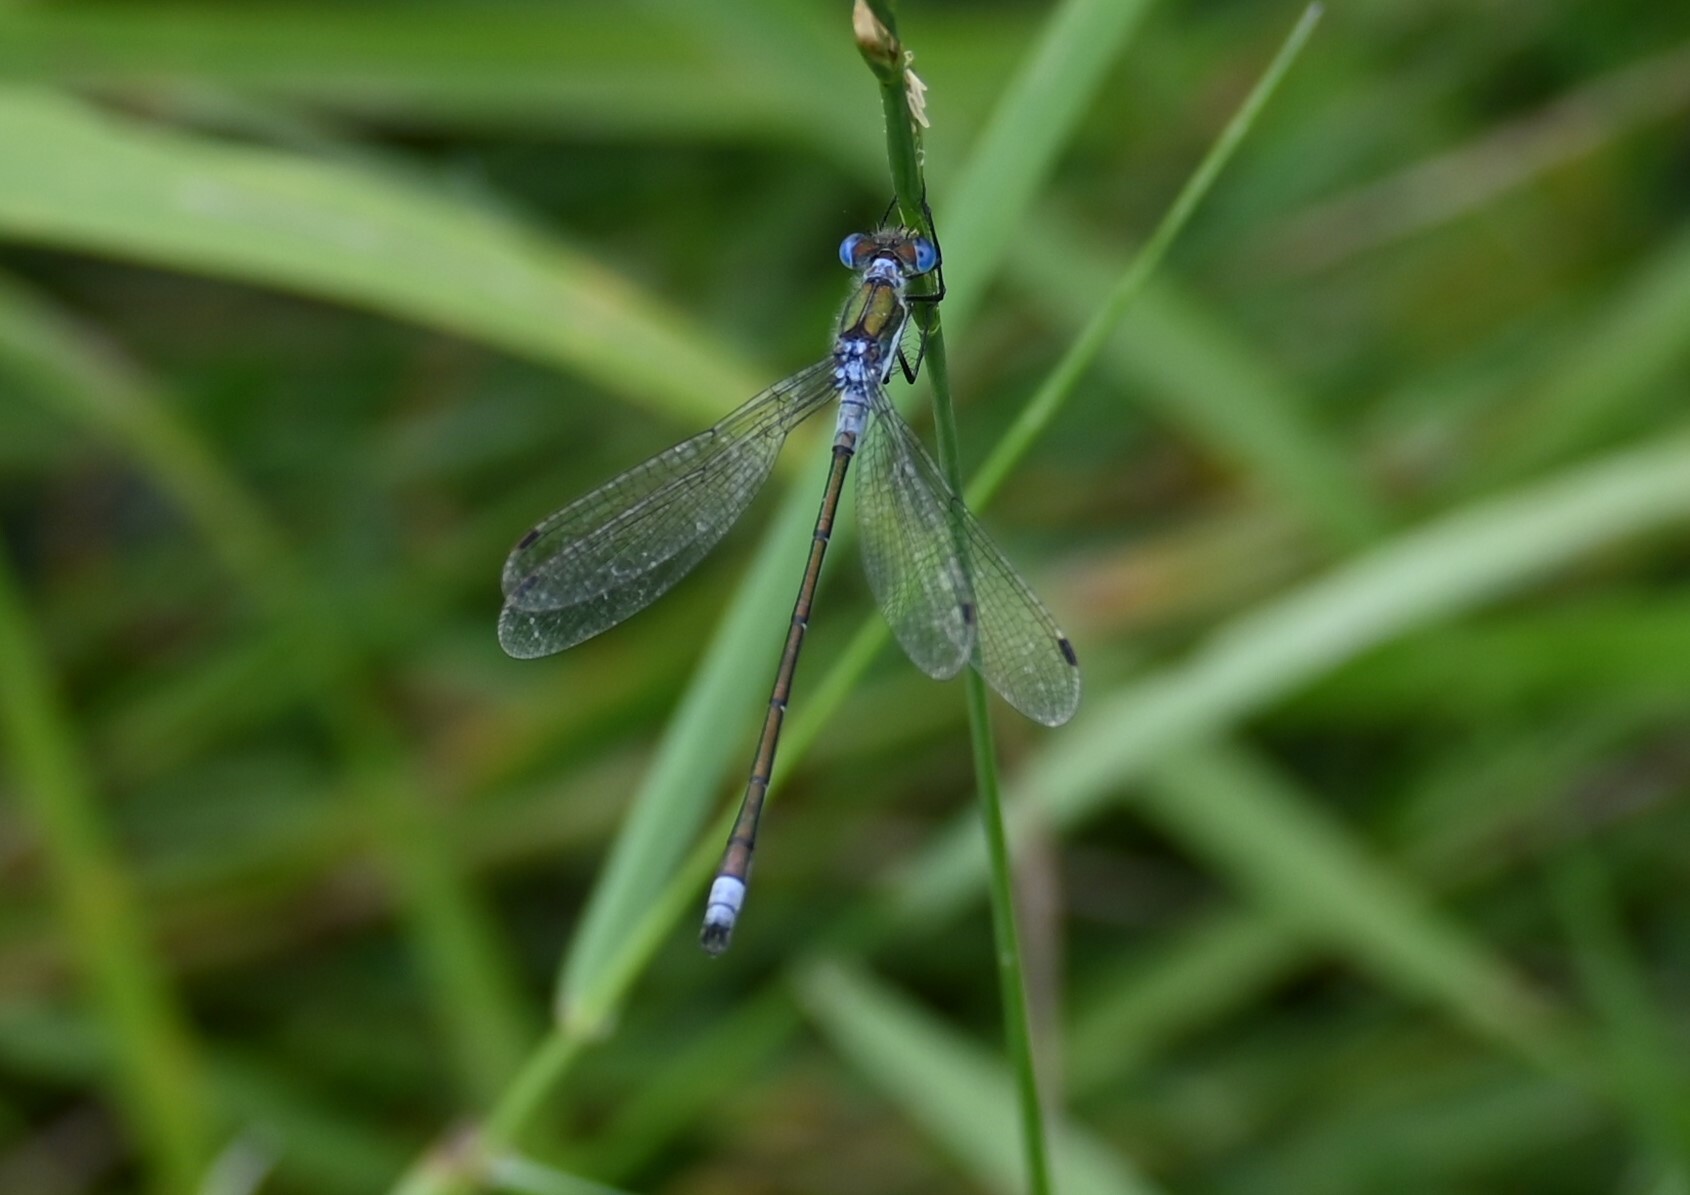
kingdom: Animalia
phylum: Arthropoda
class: Insecta
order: Odonata
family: Lestidae
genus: Lestes
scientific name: Lestes sponsa
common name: Common spreadwing
